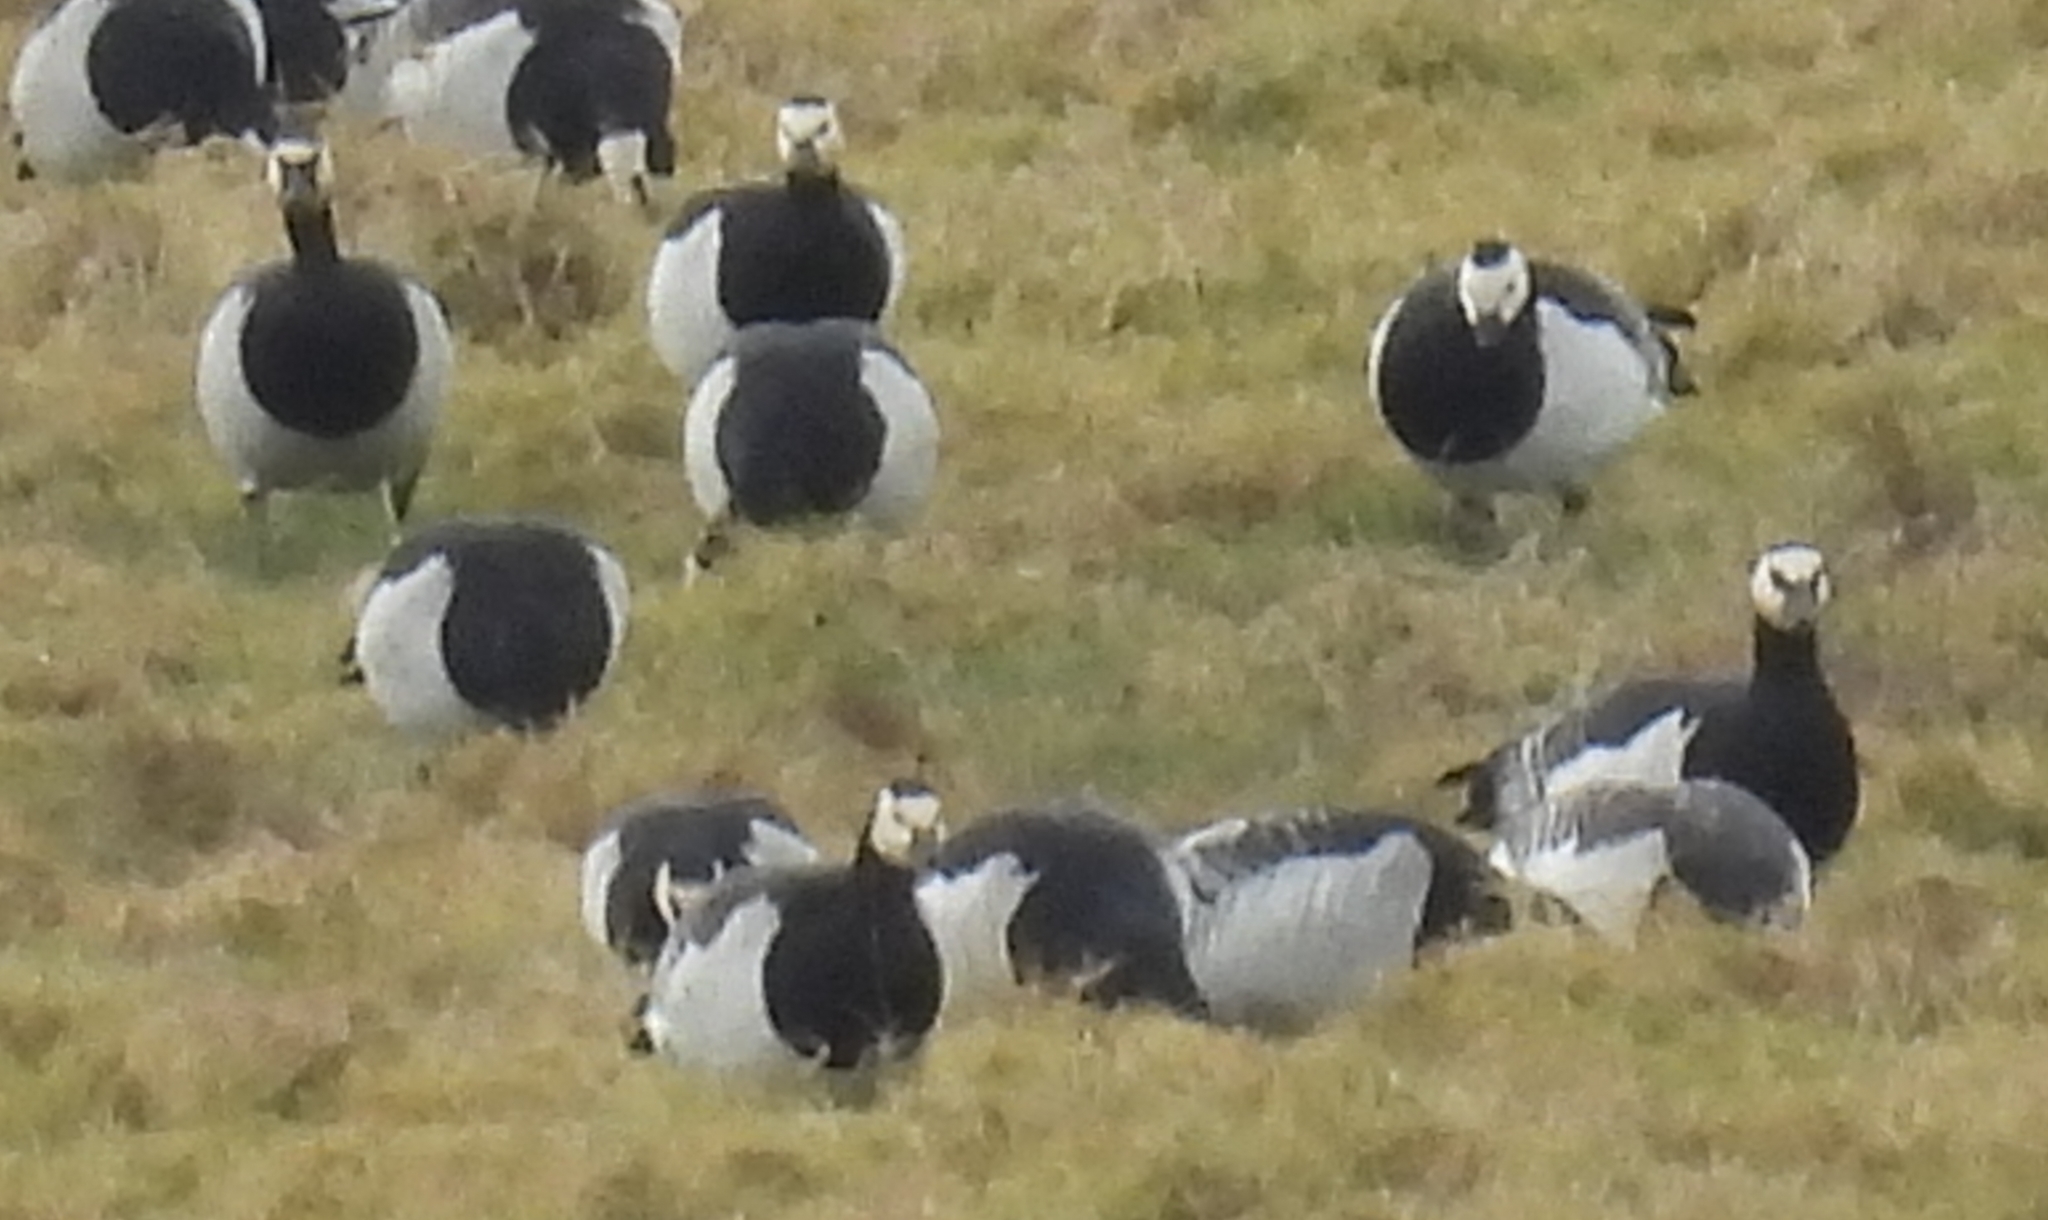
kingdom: Animalia
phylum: Chordata
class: Aves
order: Anseriformes
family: Anatidae
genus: Branta
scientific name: Branta leucopsis
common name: Barnacle goose
